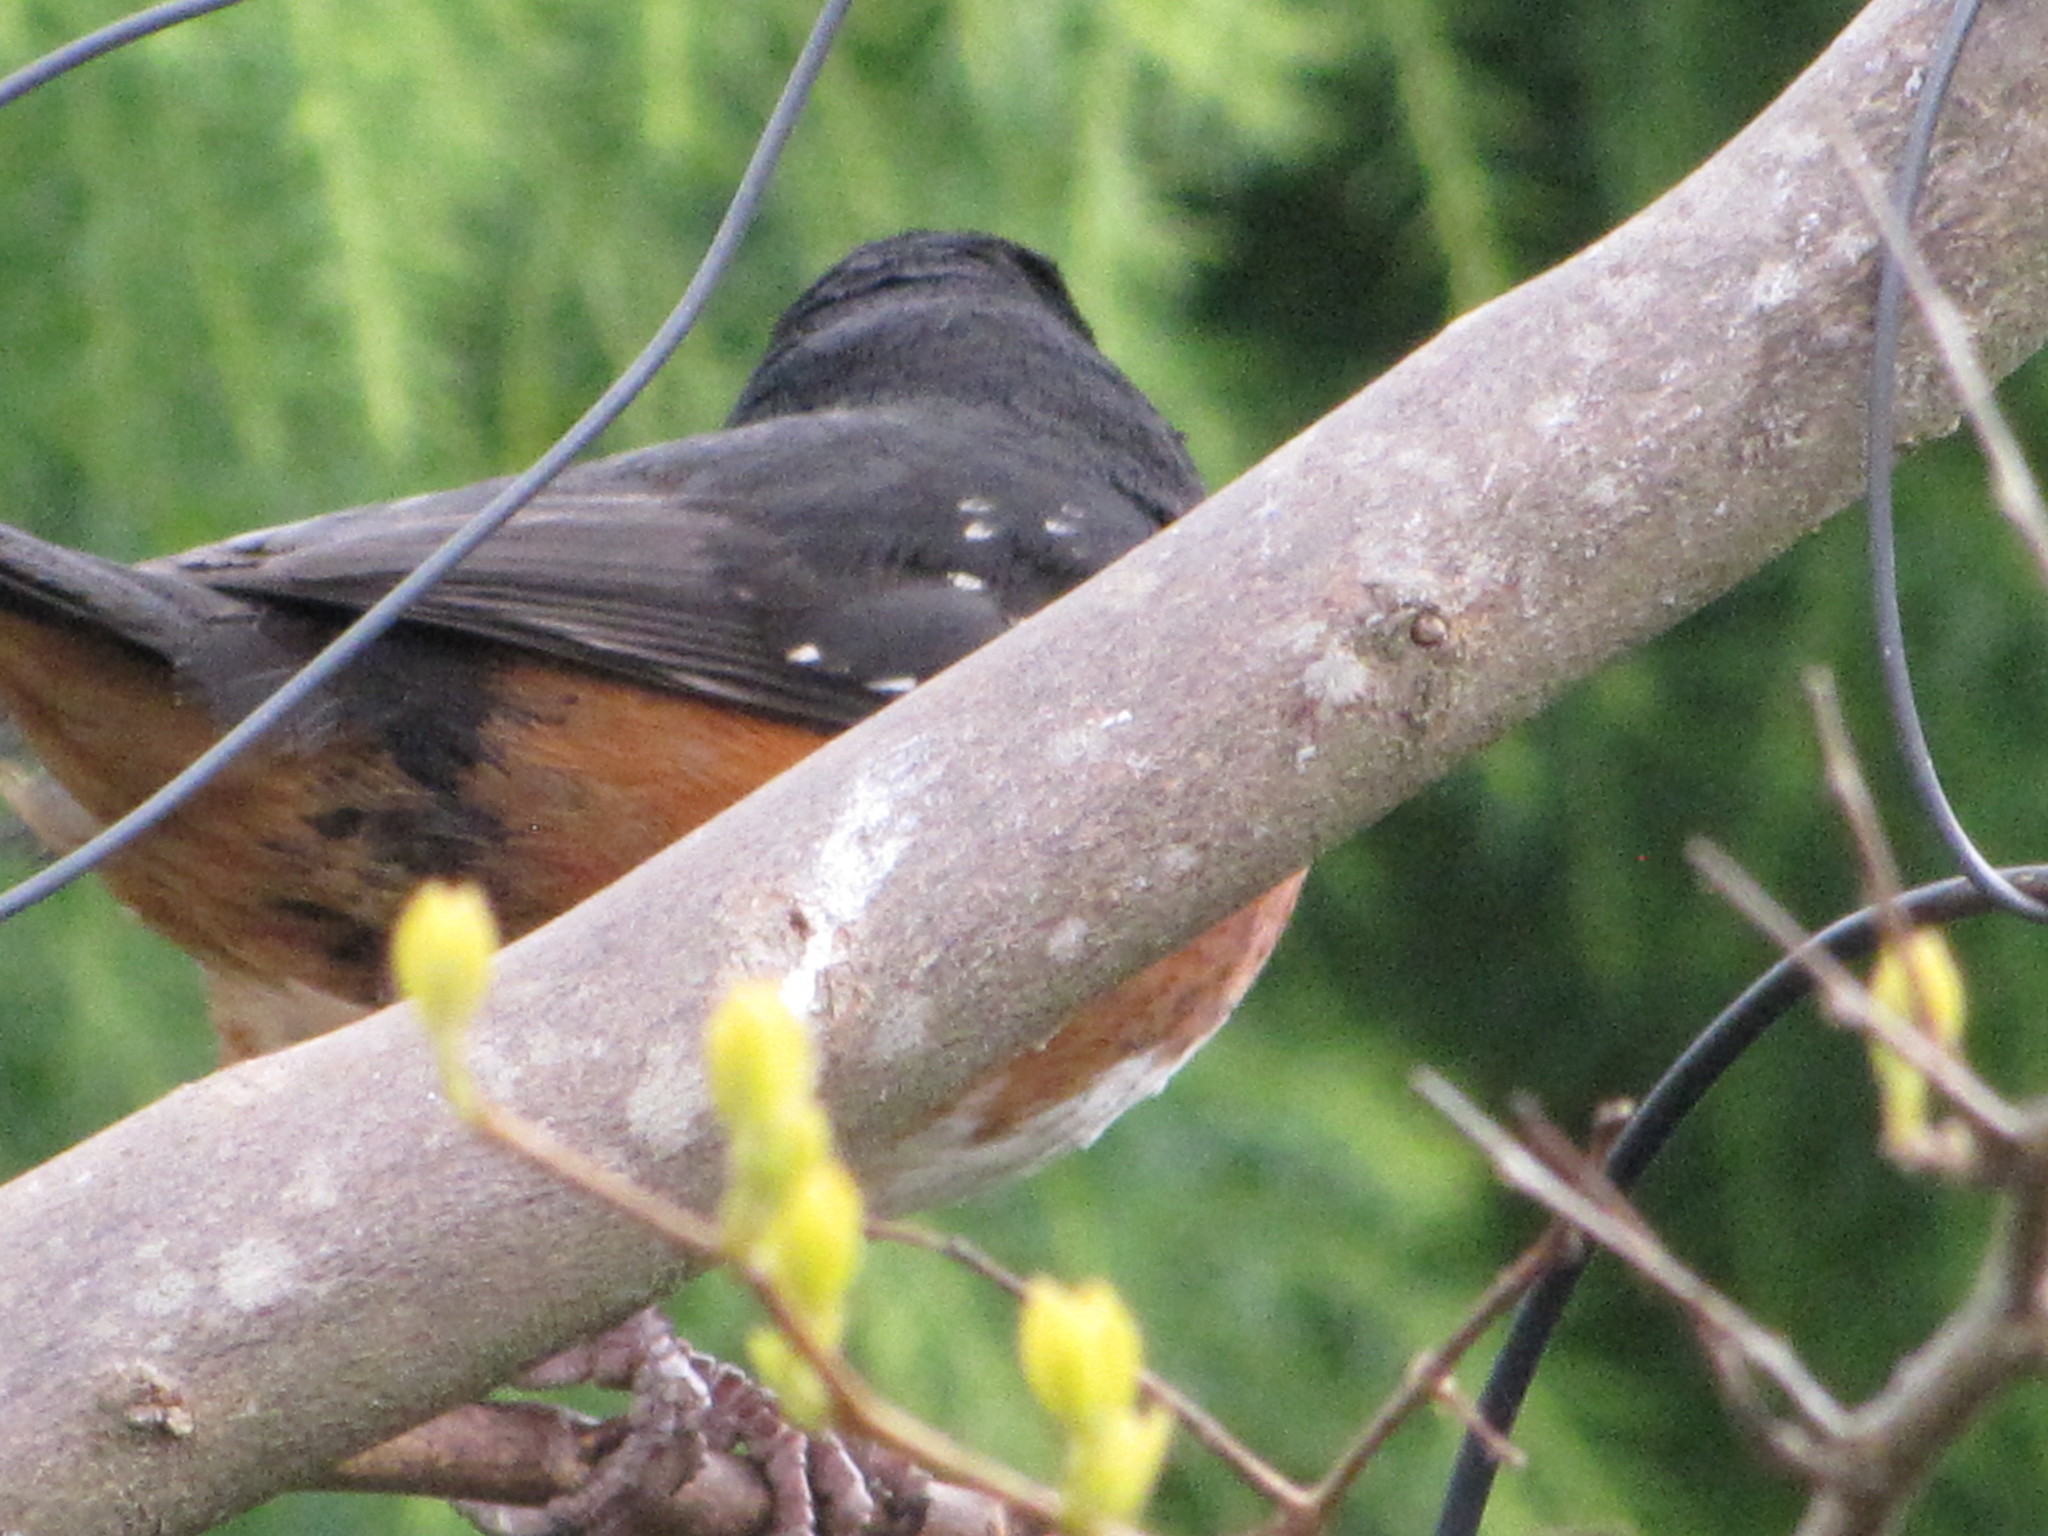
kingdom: Animalia
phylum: Chordata
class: Aves
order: Passeriformes
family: Passerellidae
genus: Pipilo
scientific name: Pipilo maculatus
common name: Spotted towhee
